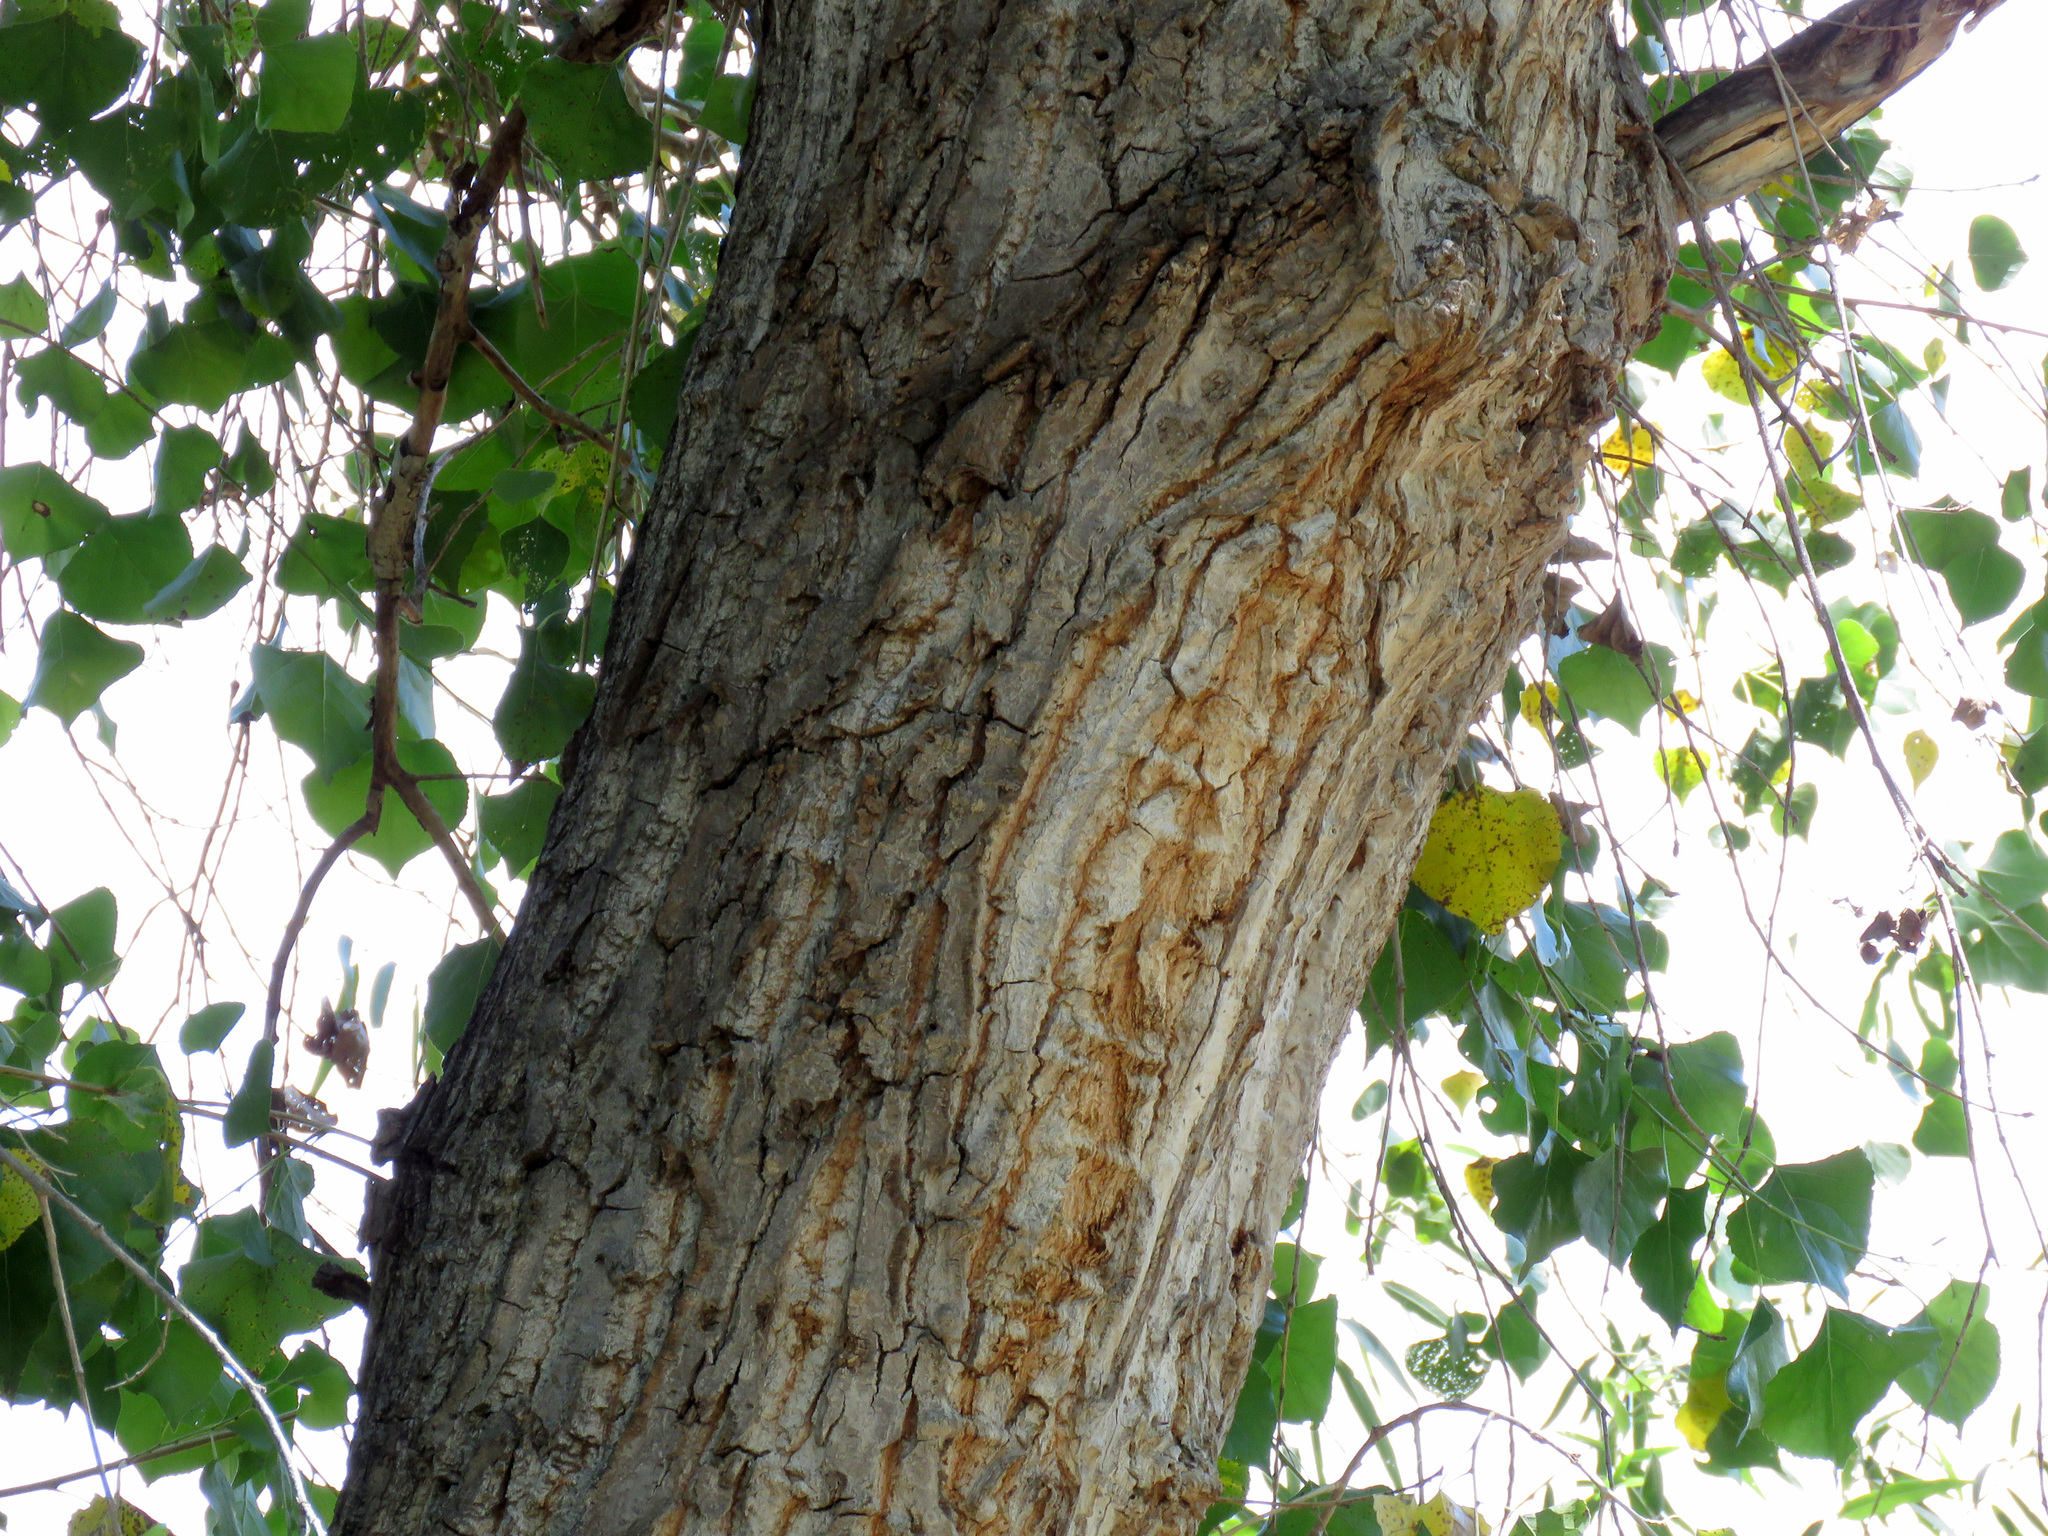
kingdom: Plantae
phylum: Tracheophyta
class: Magnoliopsida
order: Malpighiales
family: Salicaceae
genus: Populus
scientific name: Populus fremontii
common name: Fremont's cottonwood
